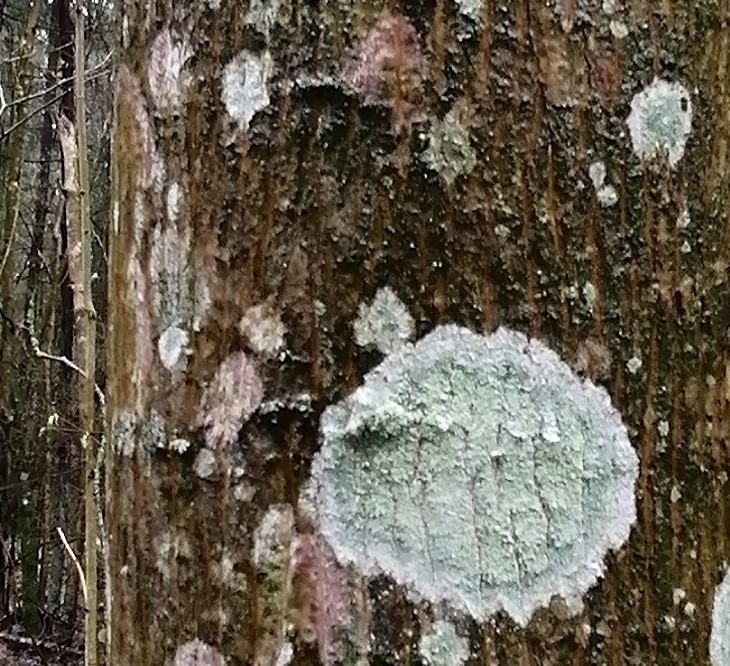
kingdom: Fungi
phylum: Ascomycota
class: Lecanoromycetes
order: Ostropales
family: Phlyctidaceae
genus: Phlyctis
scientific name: Phlyctis argena
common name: Whitewash lichen
